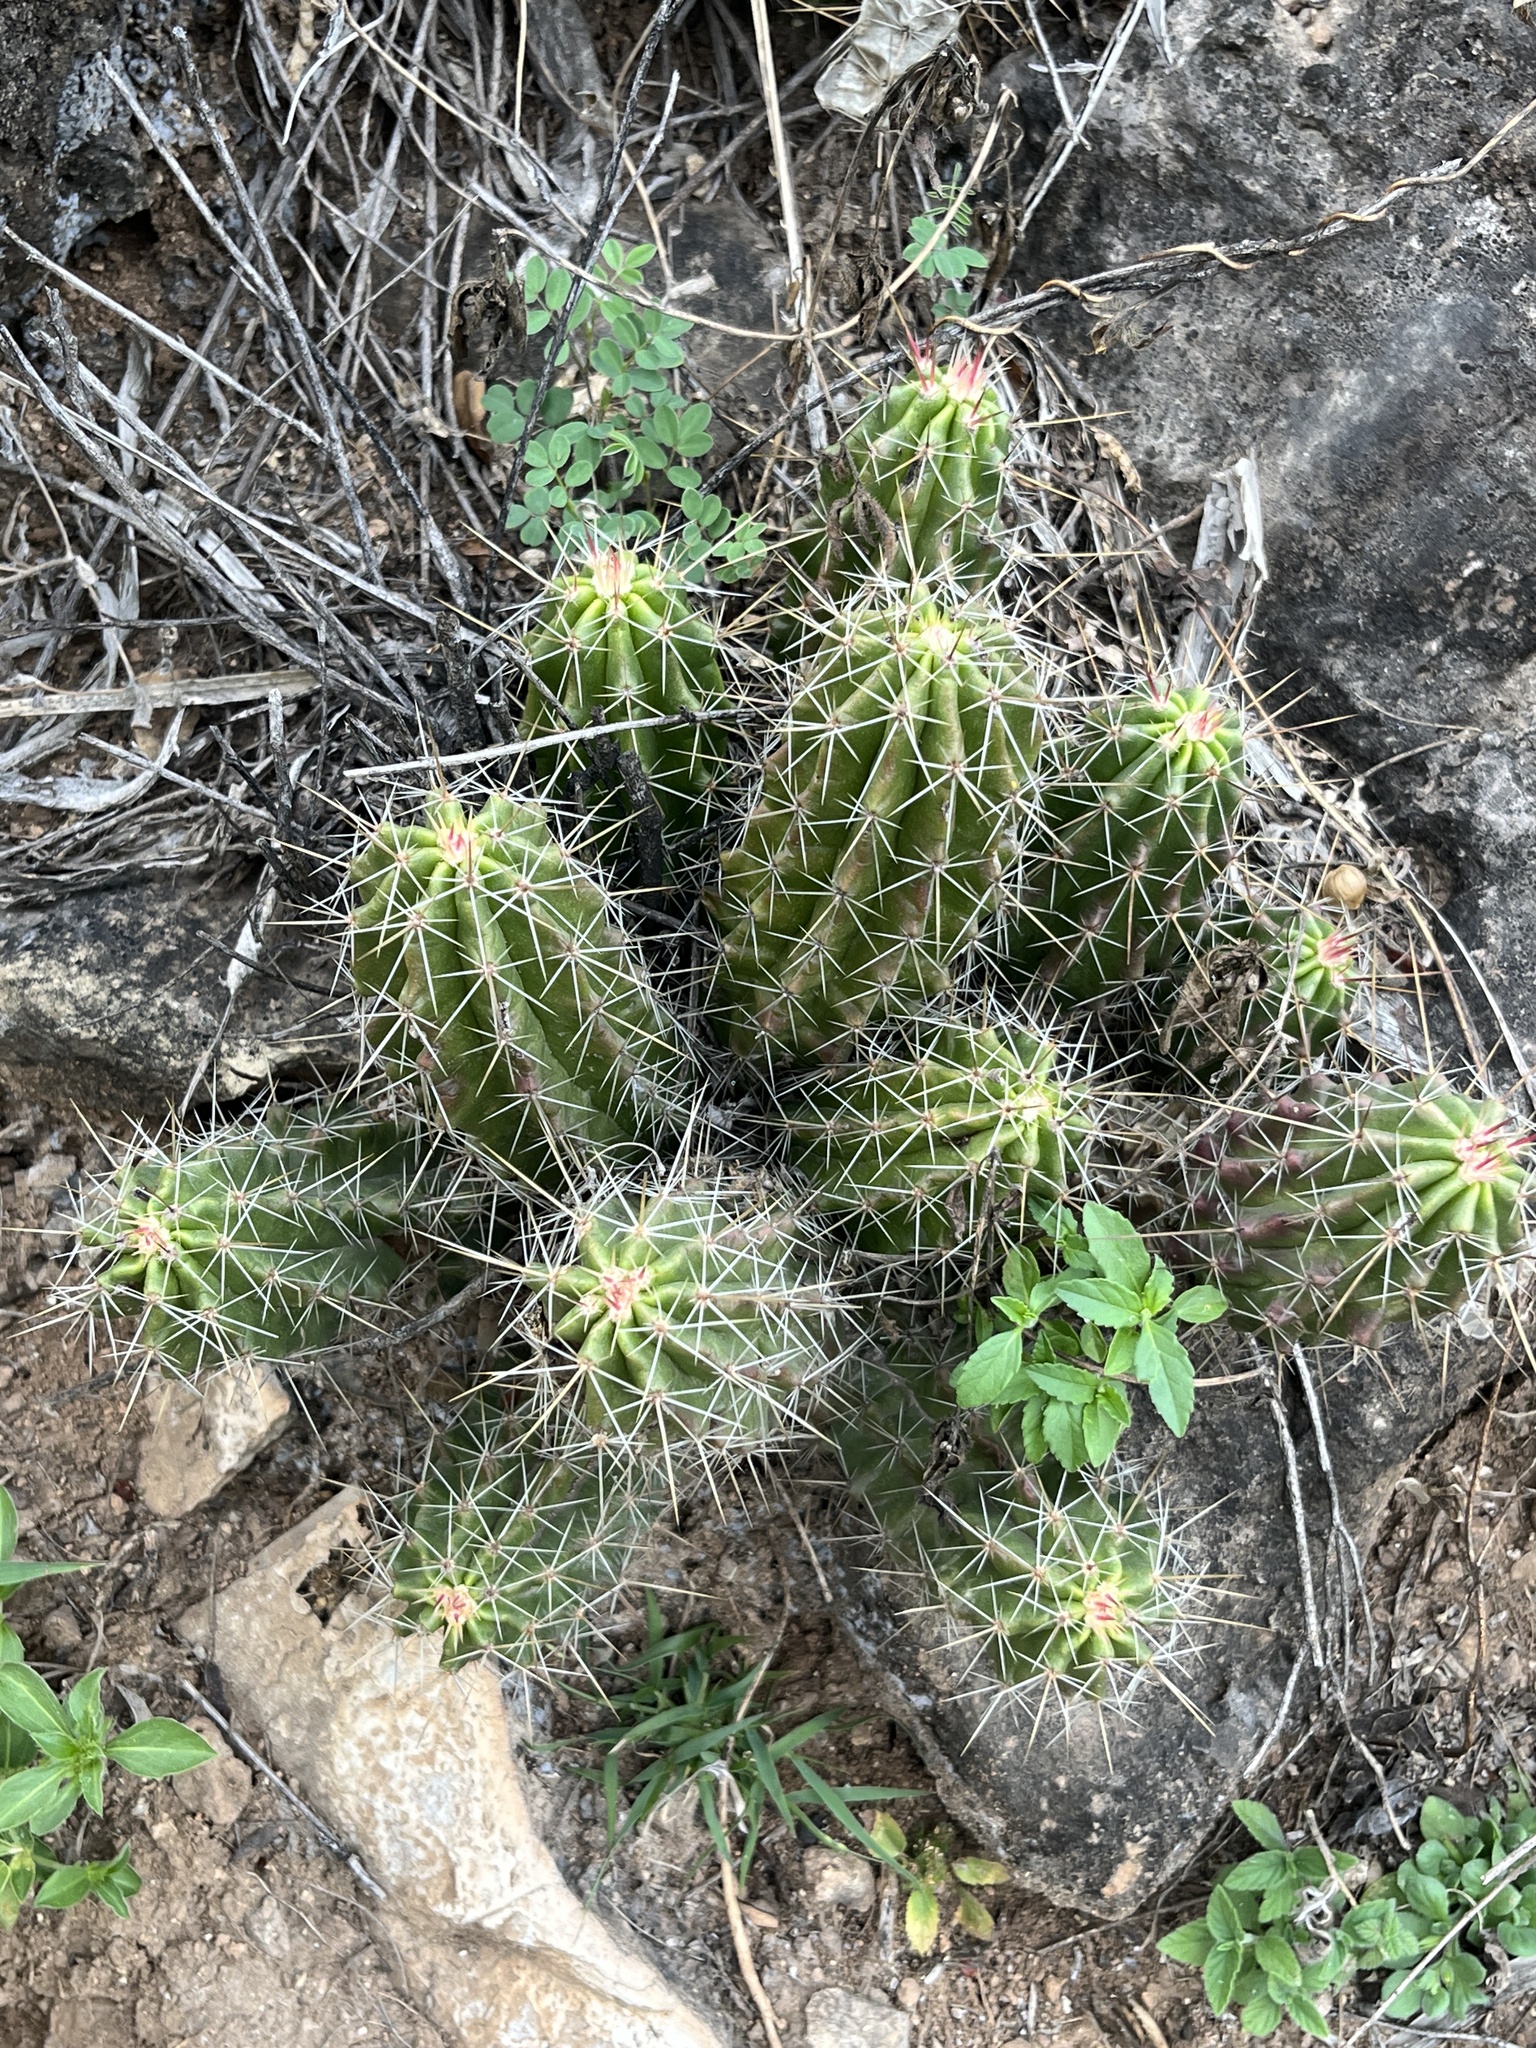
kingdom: Plantae
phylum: Tracheophyta
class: Magnoliopsida
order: Caryophyllales
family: Cactaceae
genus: Echinocereus
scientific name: Echinocereus viereckii
